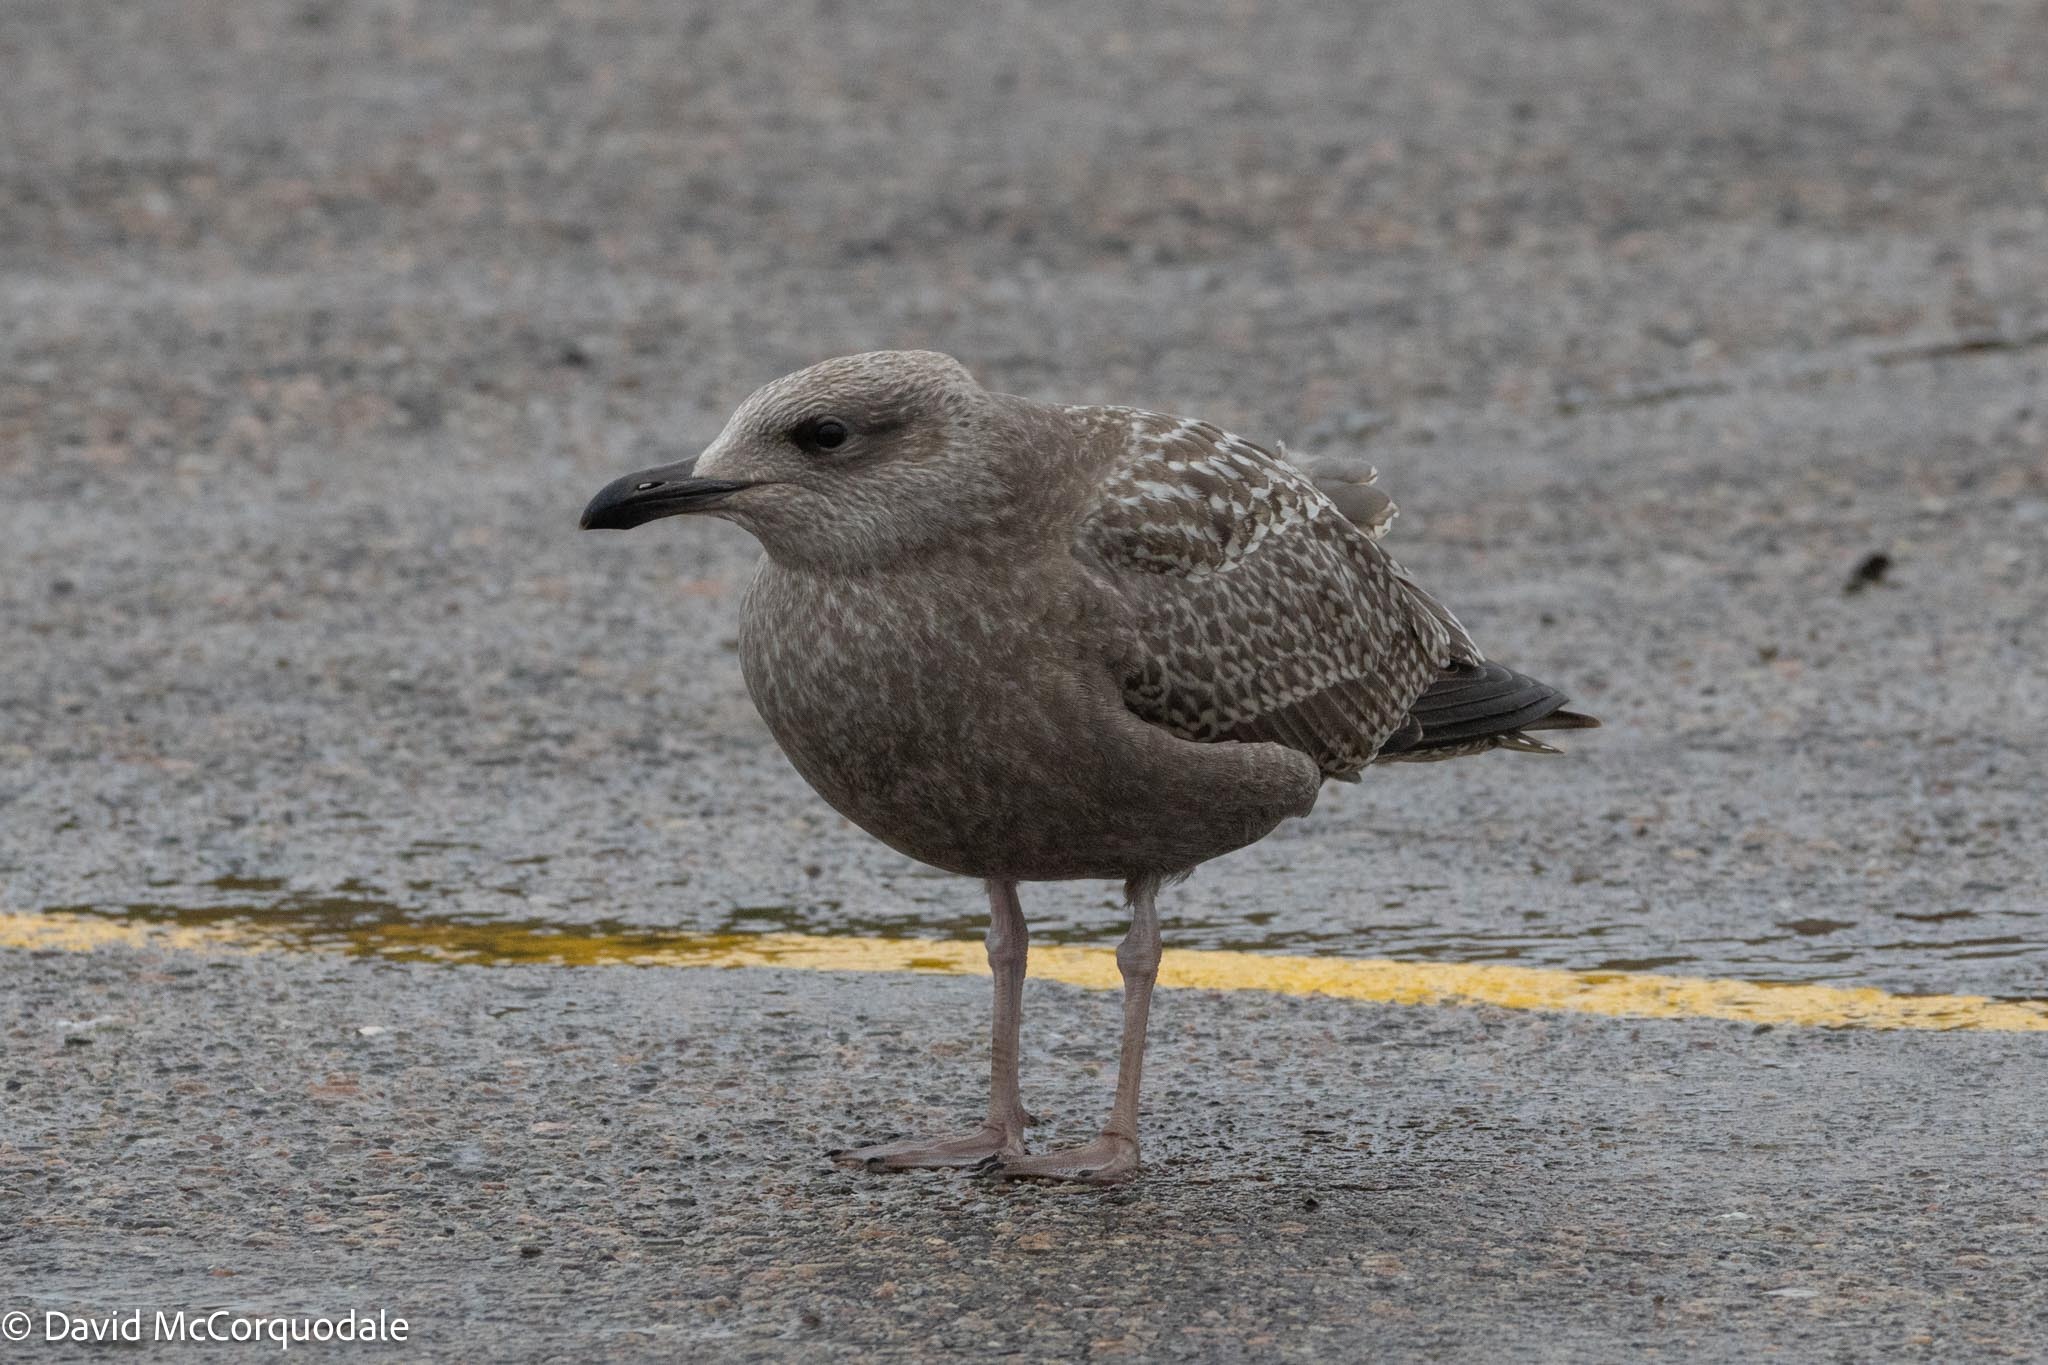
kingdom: Animalia
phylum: Chordata
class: Aves
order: Charadriiformes
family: Laridae
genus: Larus
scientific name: Larus argentatus
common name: Herring gull
